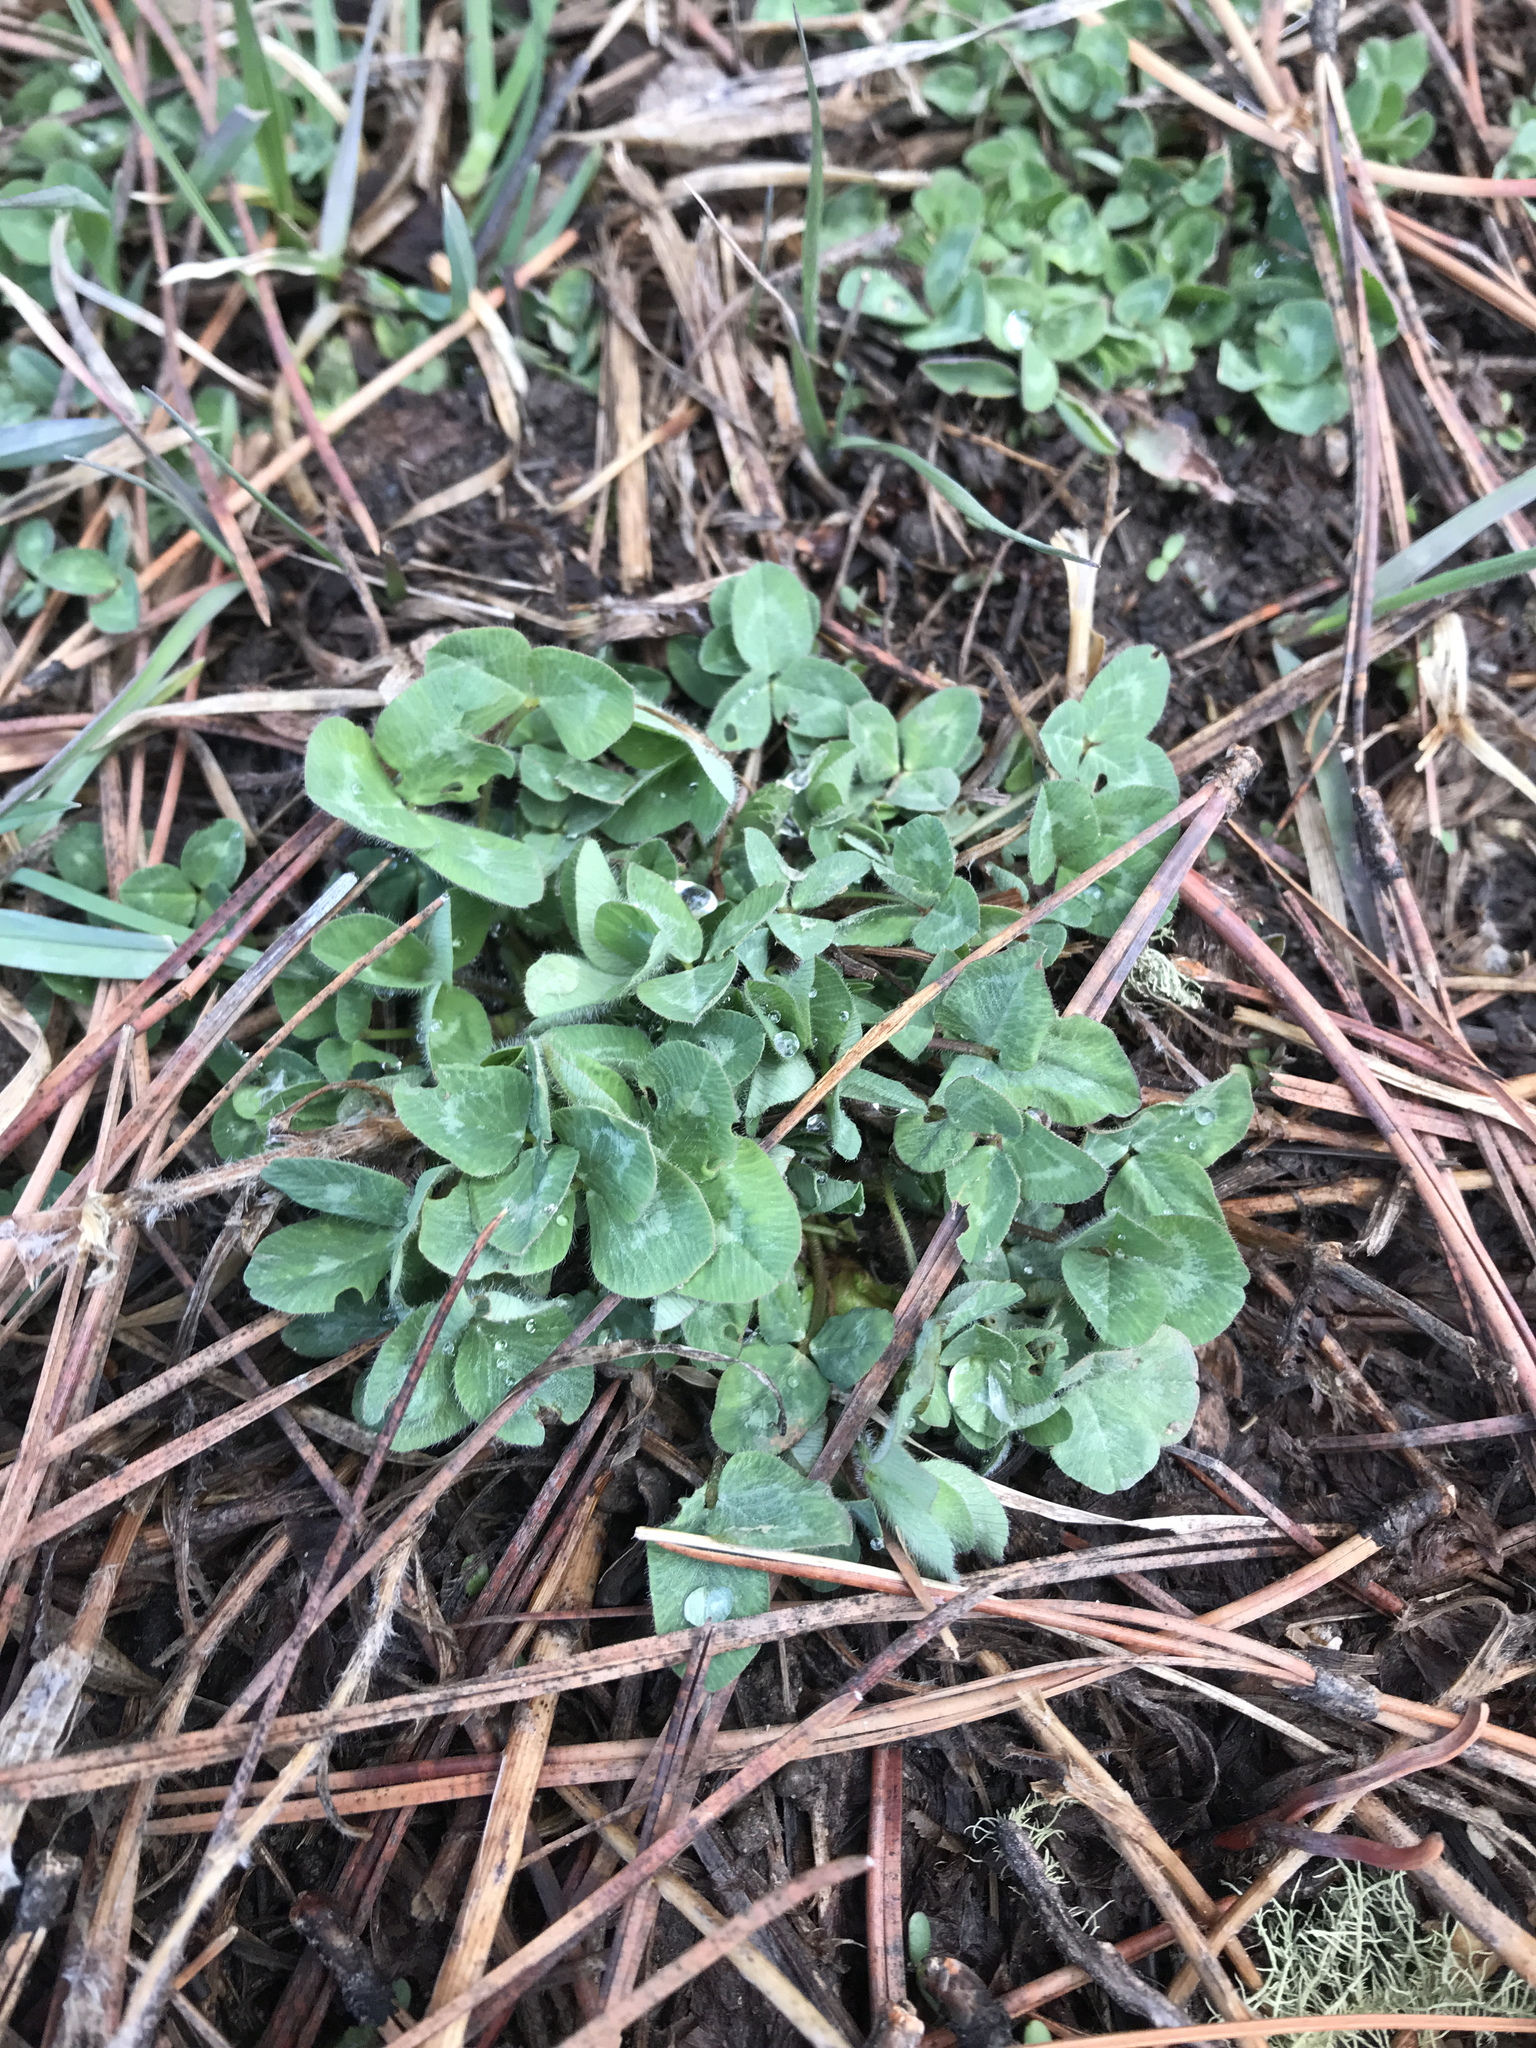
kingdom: Plantae
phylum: Tracheophyta
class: Magnoliopsida
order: Fabales
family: Fabaceae
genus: Trifolium
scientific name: Trifolium pratense
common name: Red clover
